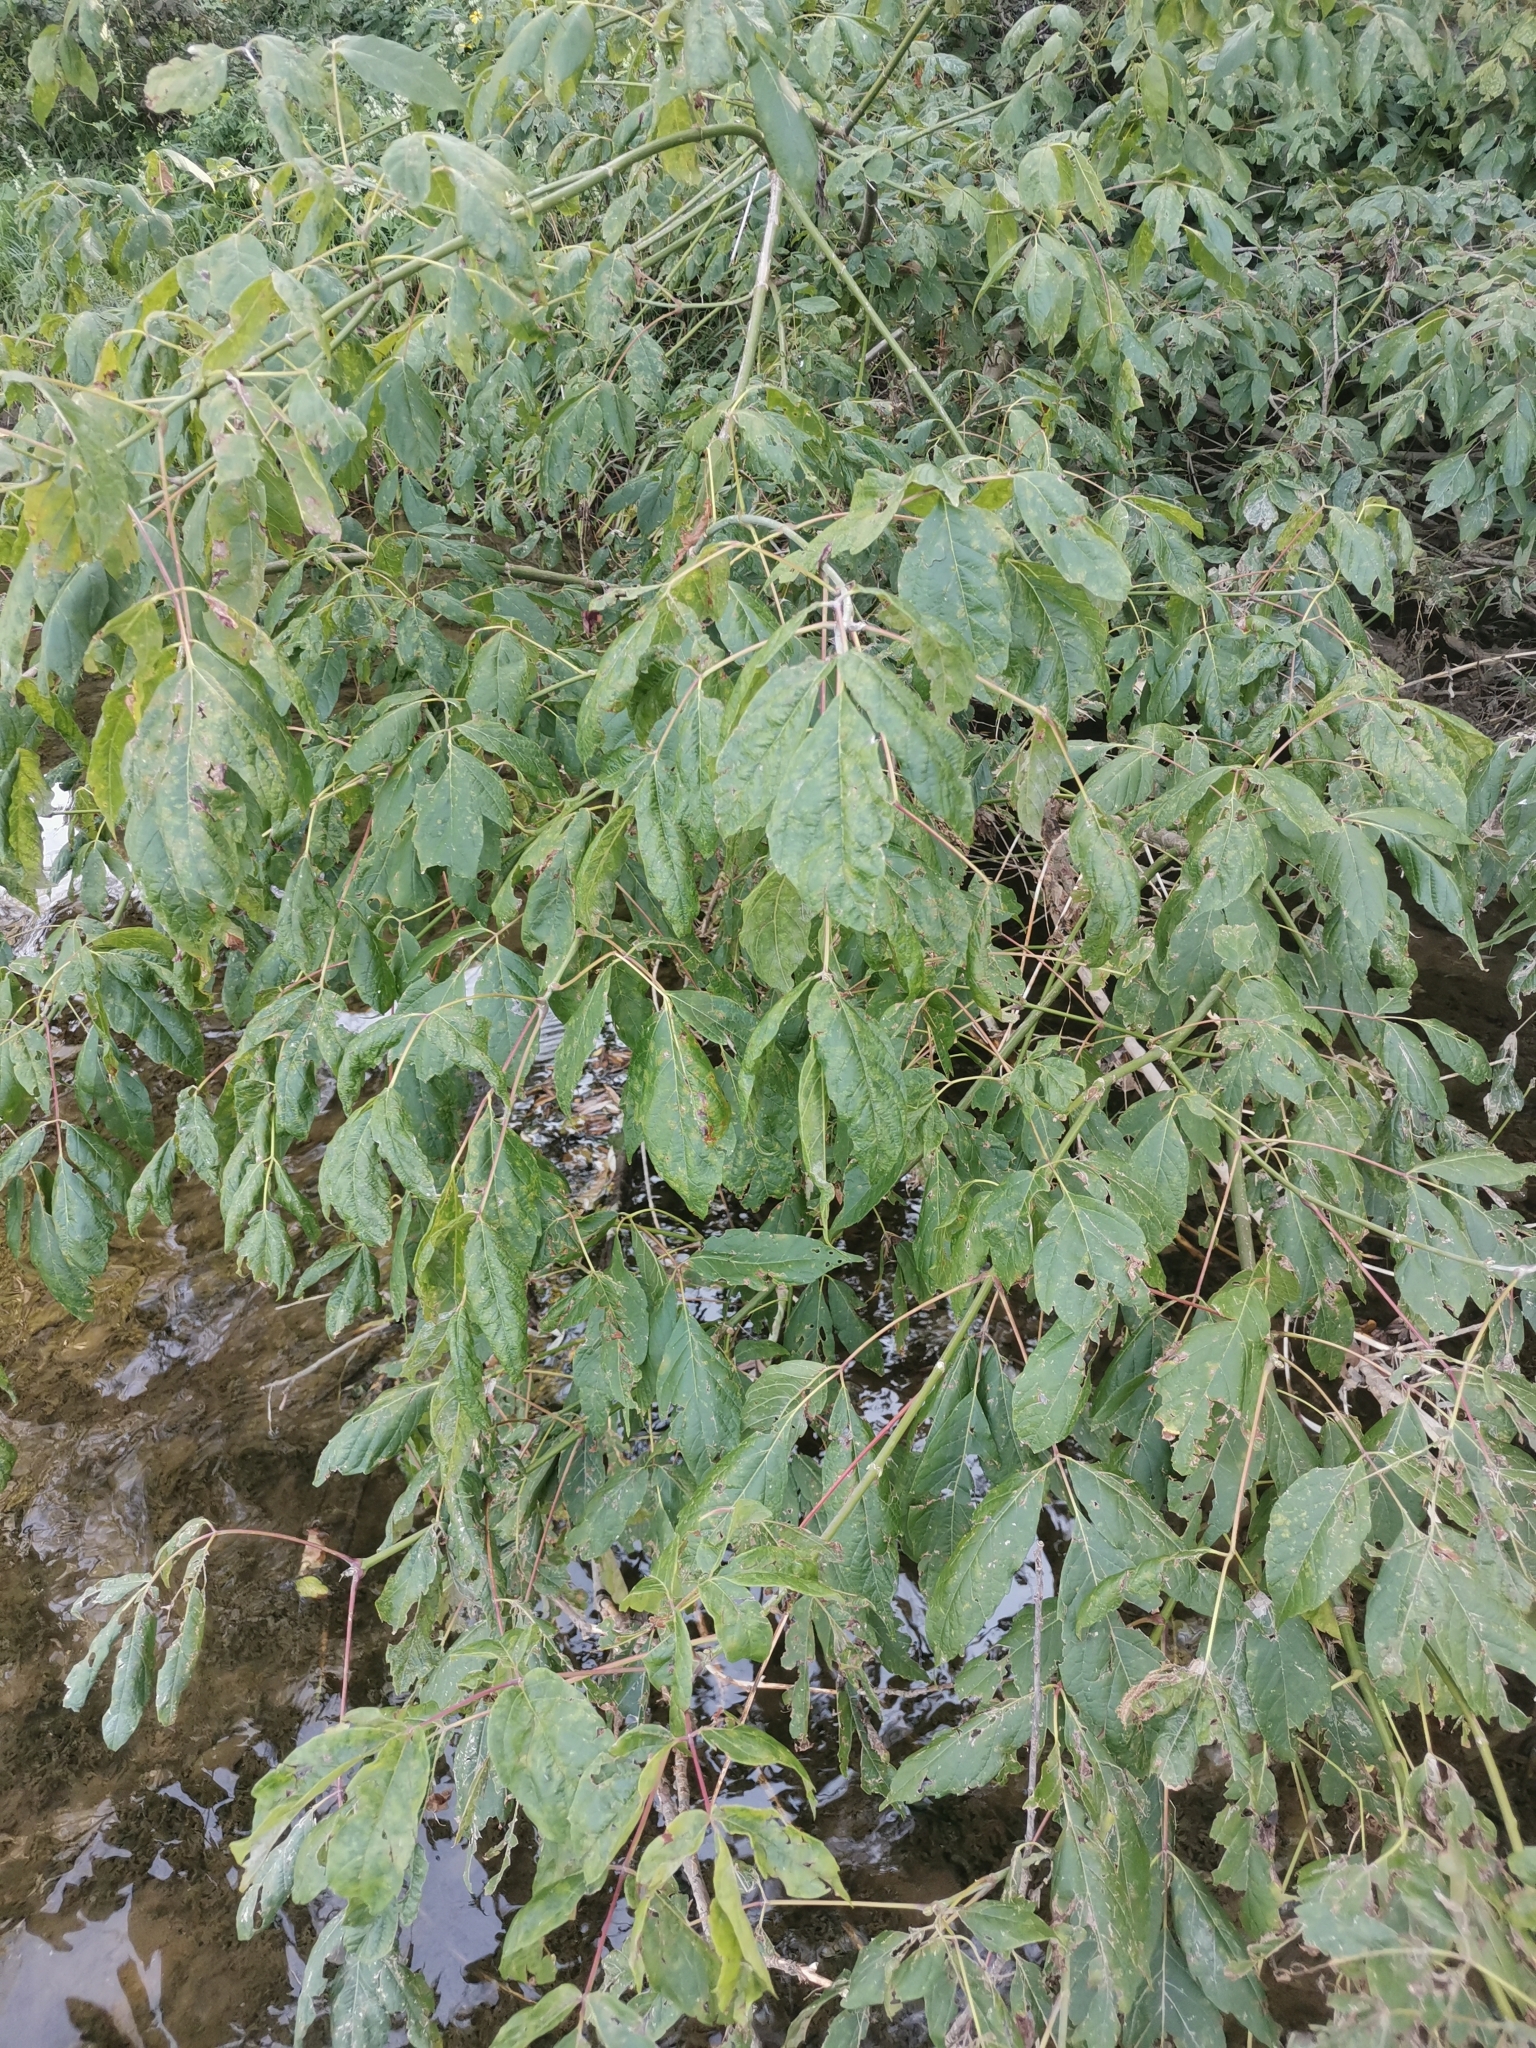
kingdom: Plantae
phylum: Tracheophyta
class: Magnoliopsida
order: Sapindales
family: Sapindaceae
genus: Acer
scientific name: Acer negundo
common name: Ashleaf maple
